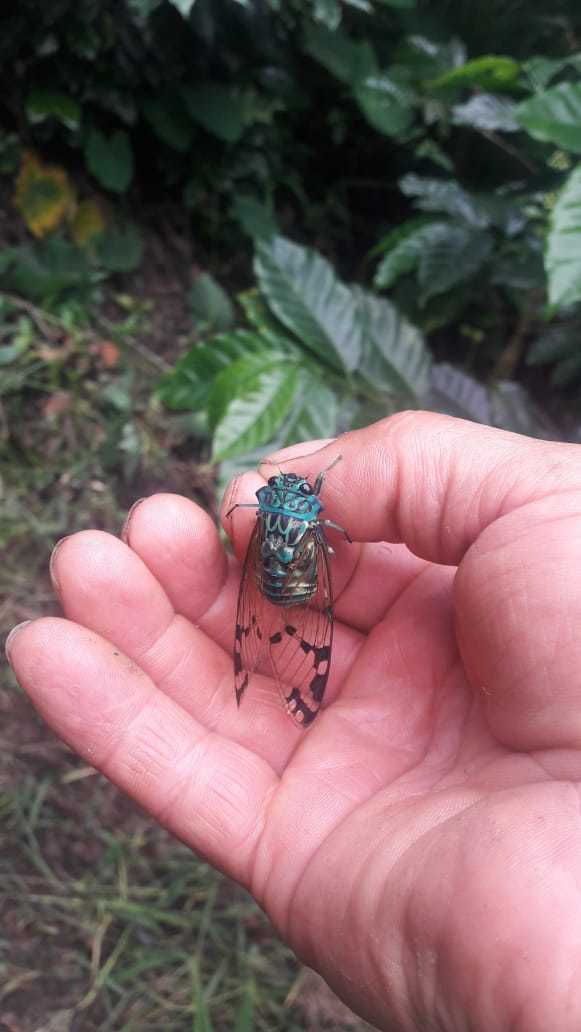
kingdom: Animalia
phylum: Arthropoda
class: Insecta
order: Hemiptera
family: Cicadidae
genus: Zammara
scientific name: Zammara smaragdina
